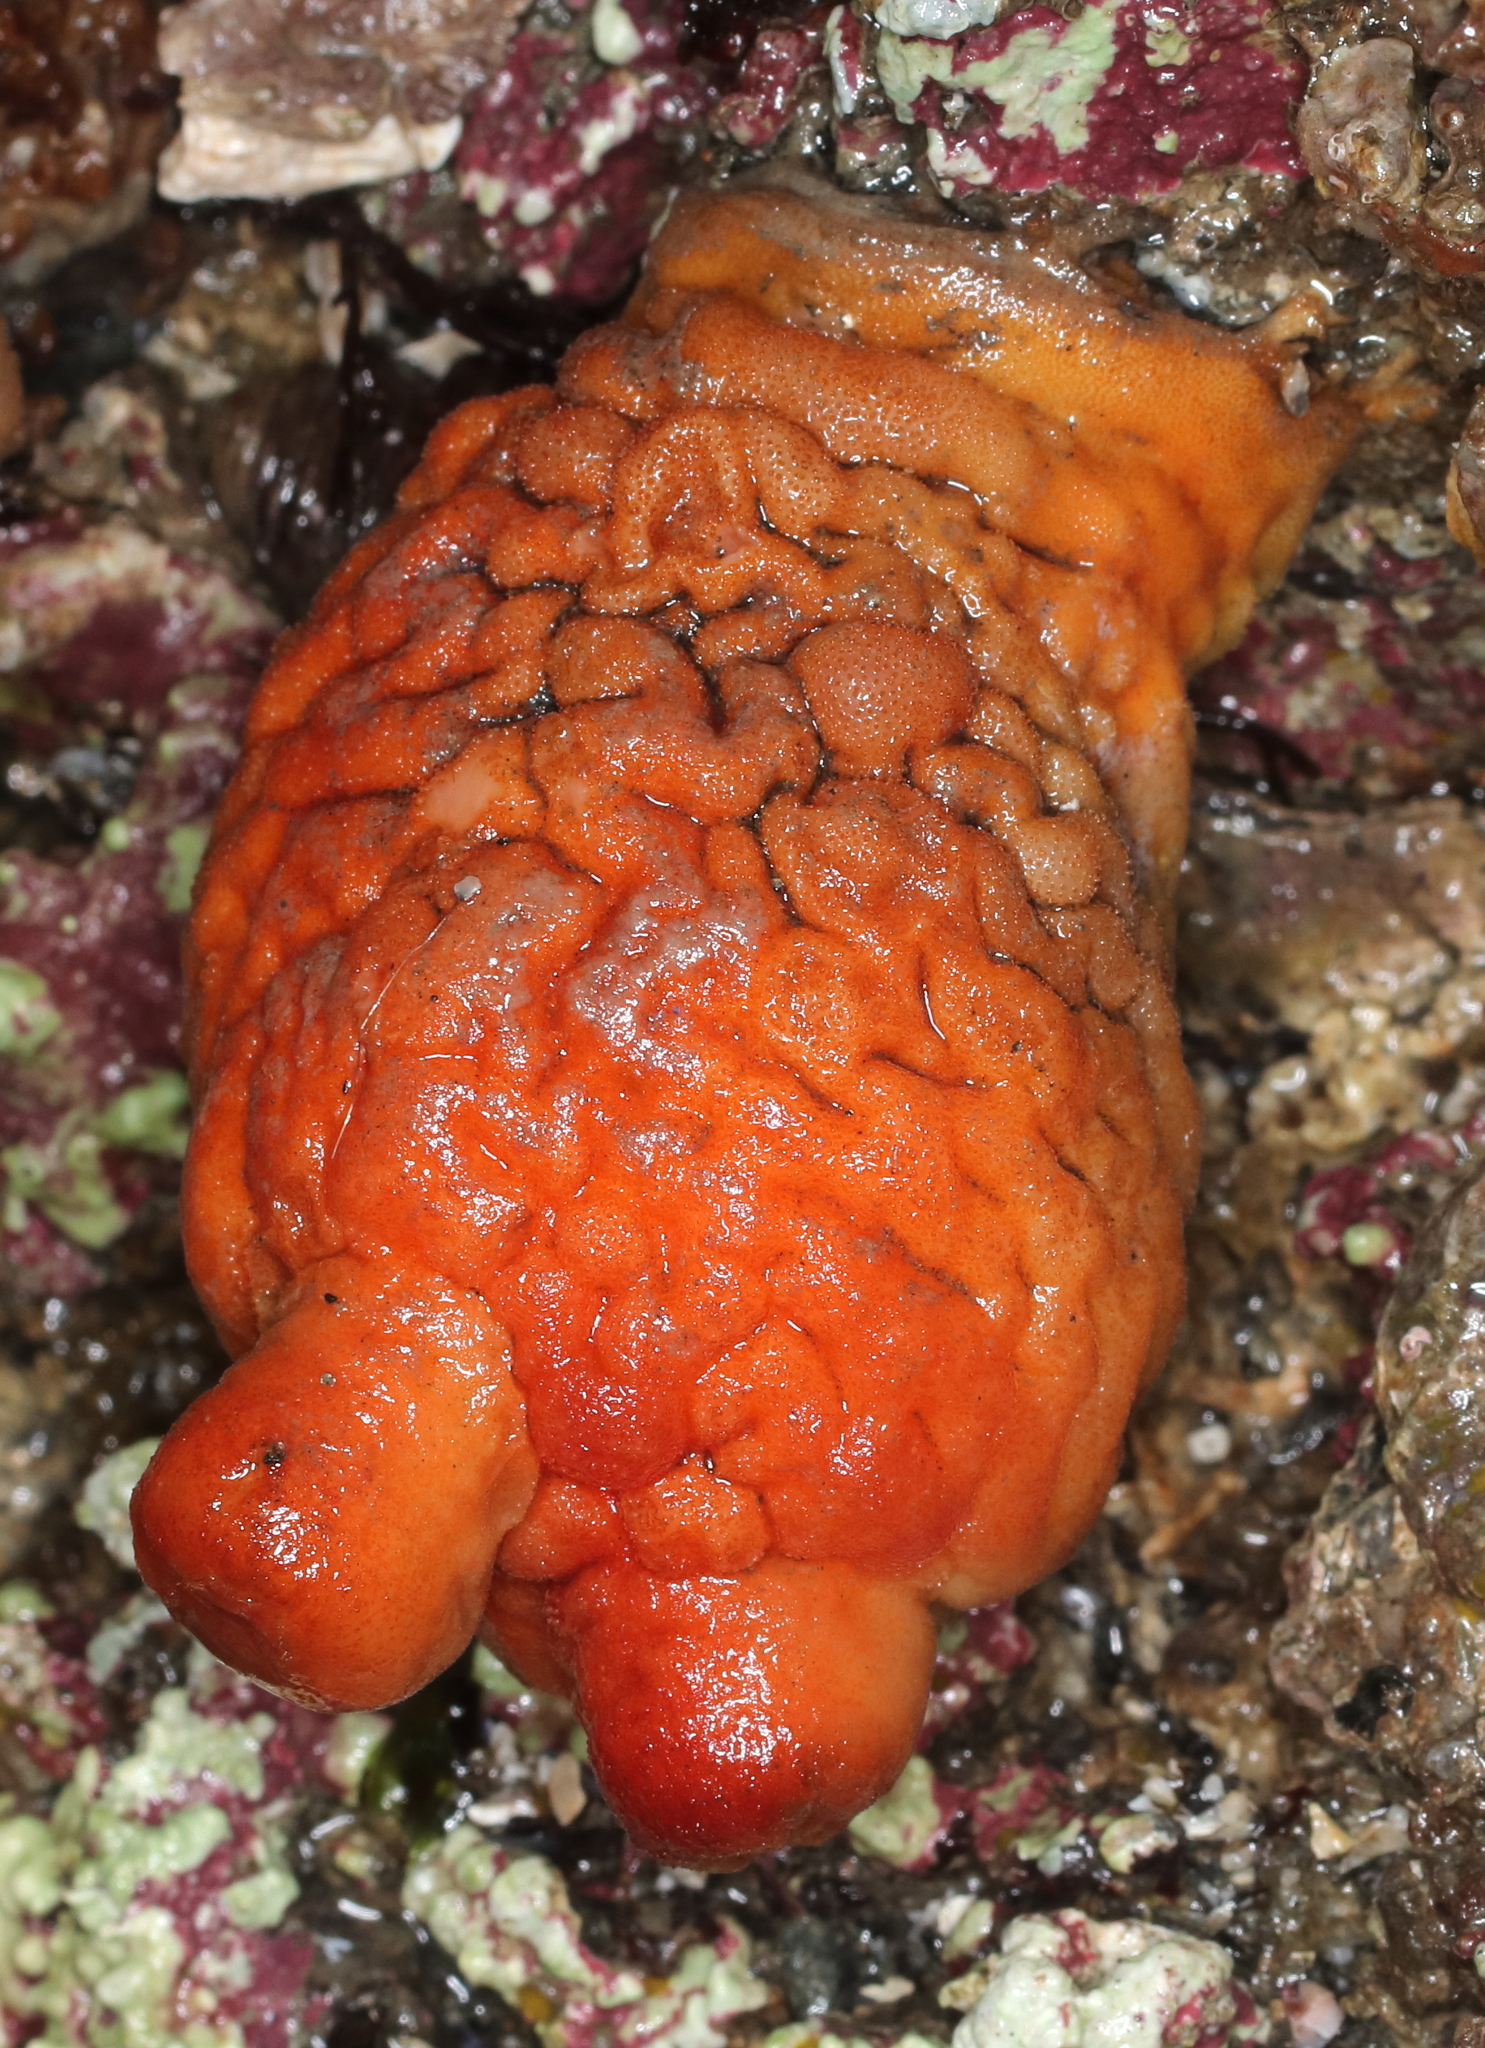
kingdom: Animalia
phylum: Chordata
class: Ascidiacea
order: Stolidobranchia
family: Pyuridae
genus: Halocynthia
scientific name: Halocynthia aurantium
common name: Sea peach
